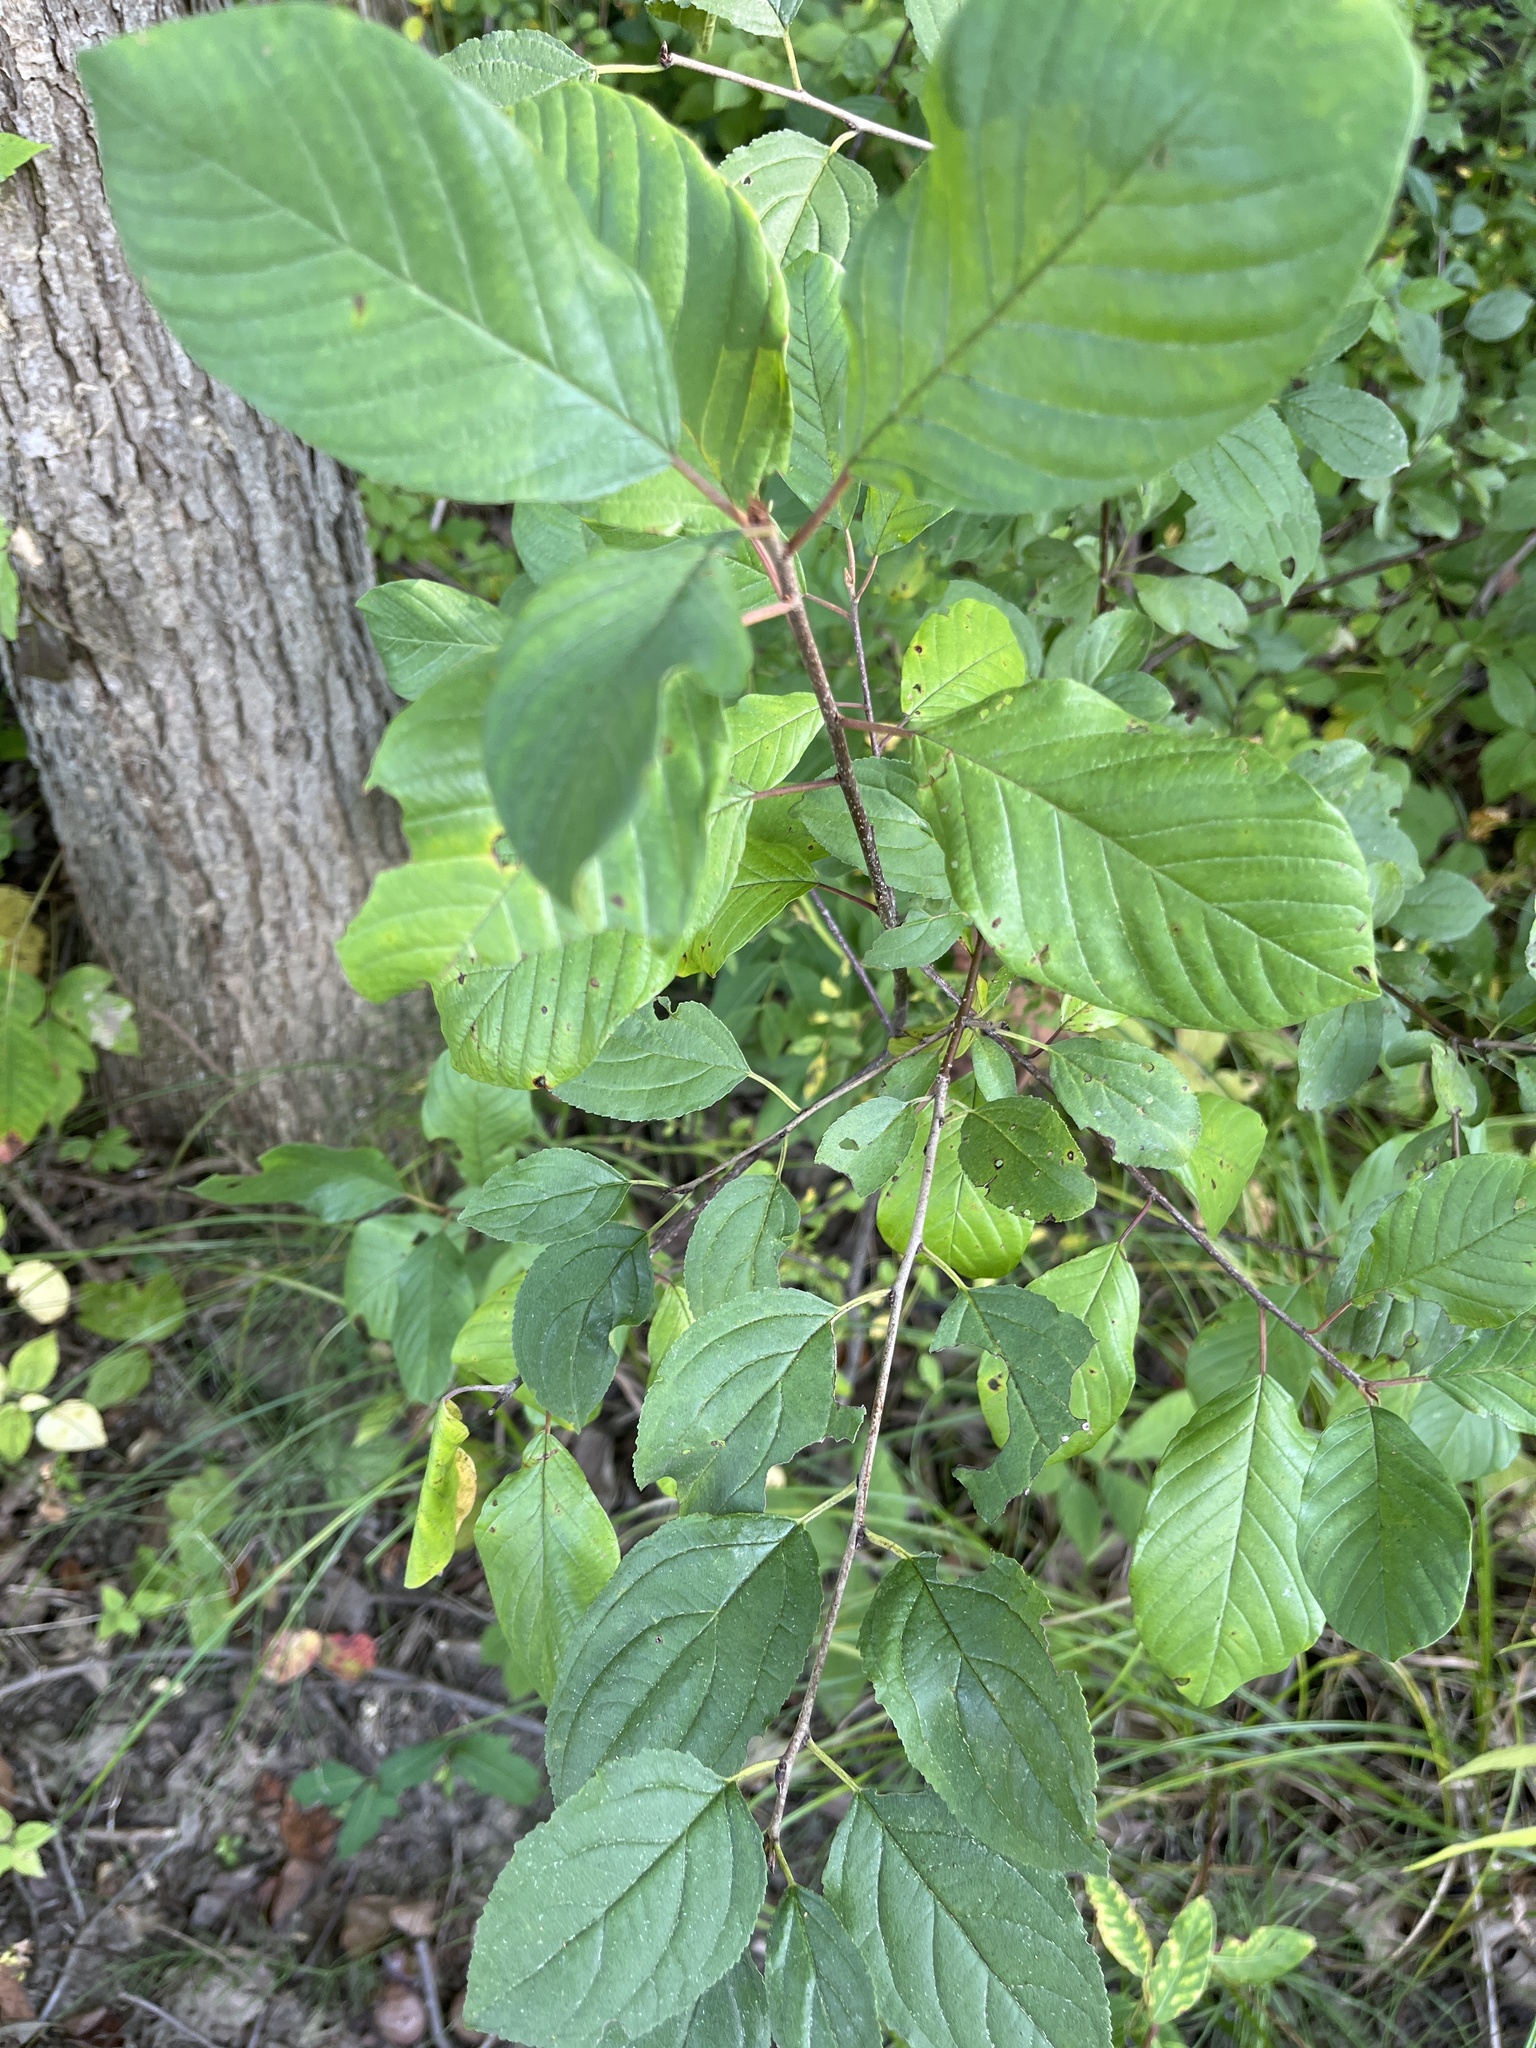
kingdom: Plantae
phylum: Tracheophyta
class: Magnoliopsida
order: Rosales
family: Rhamnaceae
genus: Frangula
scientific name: Frangula alnus
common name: Alder buckthorn
